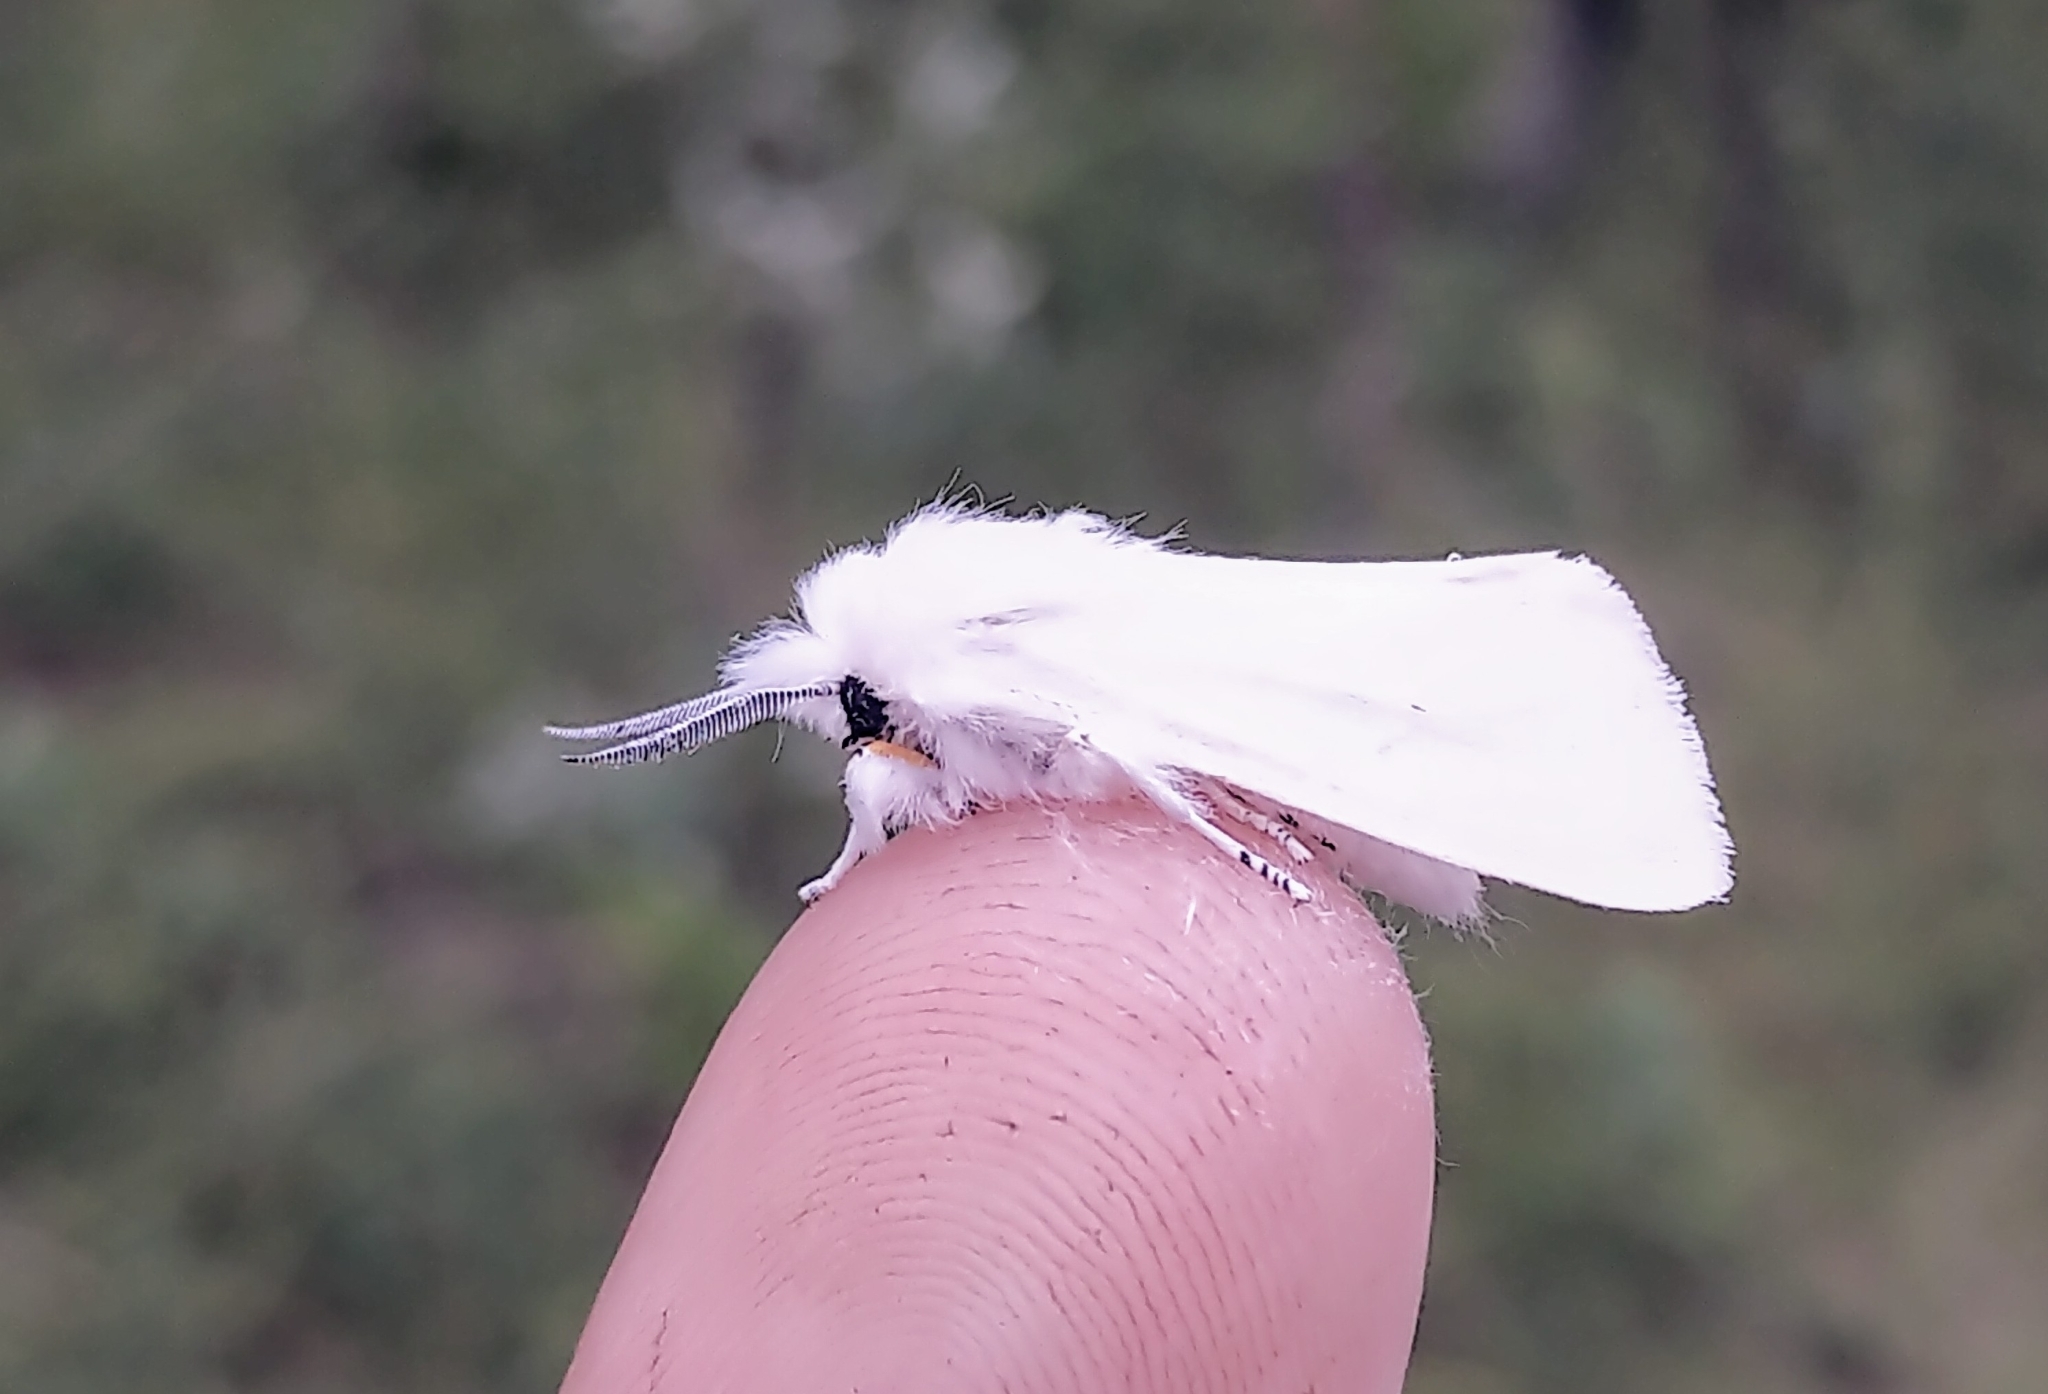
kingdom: Animalia
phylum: Arthropoda
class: Insecta
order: Lepidoptera
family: Erebidae
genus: Spilosoma
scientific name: Spilosoma virginica
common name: Virginia tiger moth
